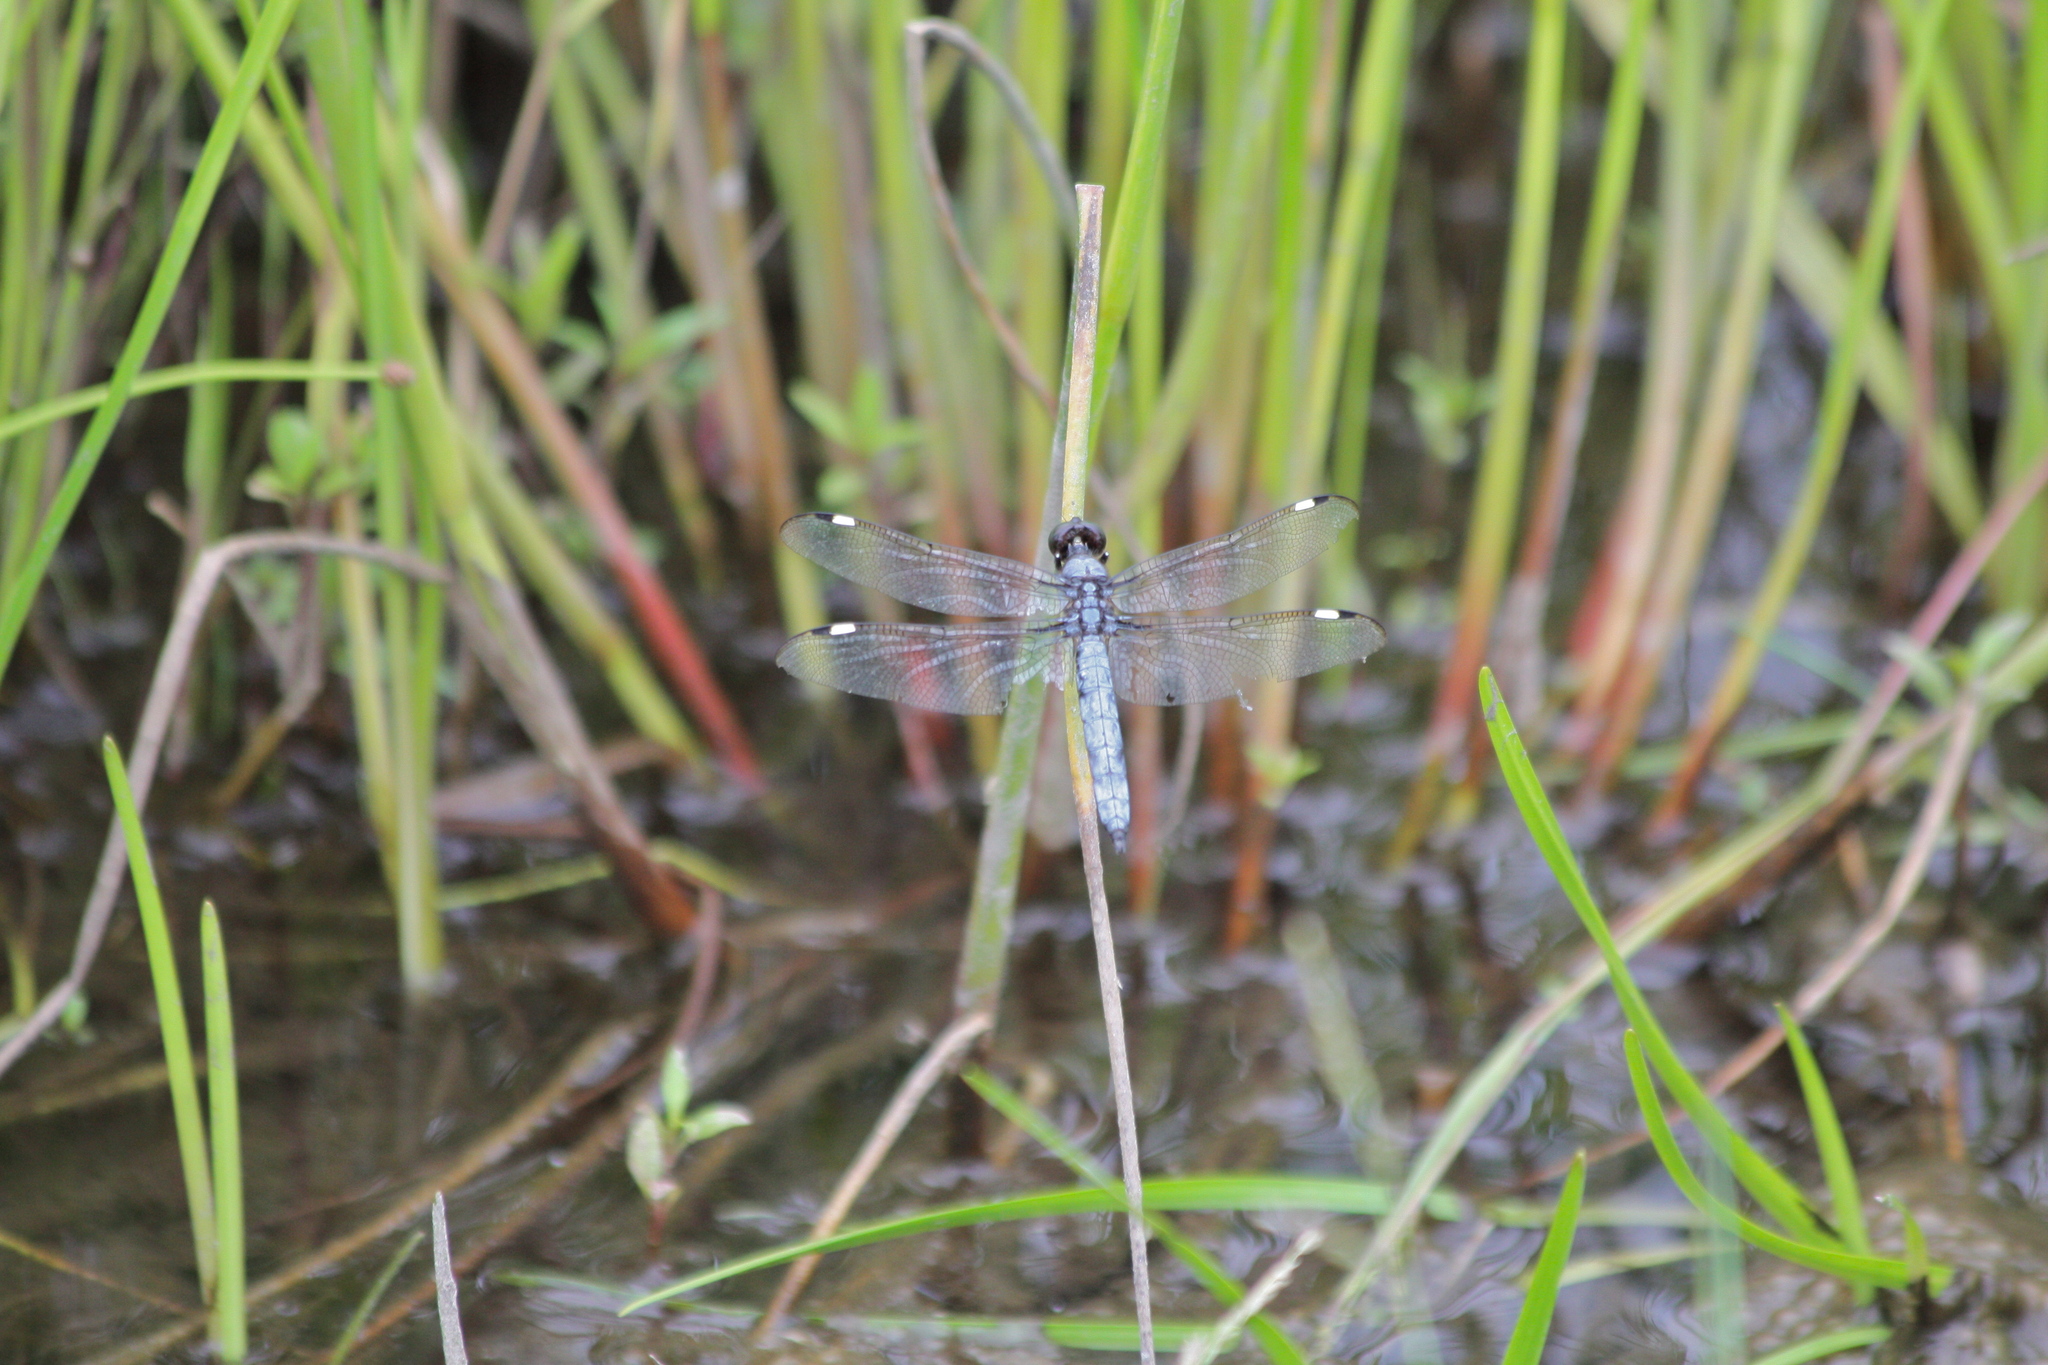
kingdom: Animalia
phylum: Arthropoda
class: Insecta
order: Odonata
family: Libellulidae
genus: Libellula
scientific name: Libellula cyanea
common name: Spangled skimmer
